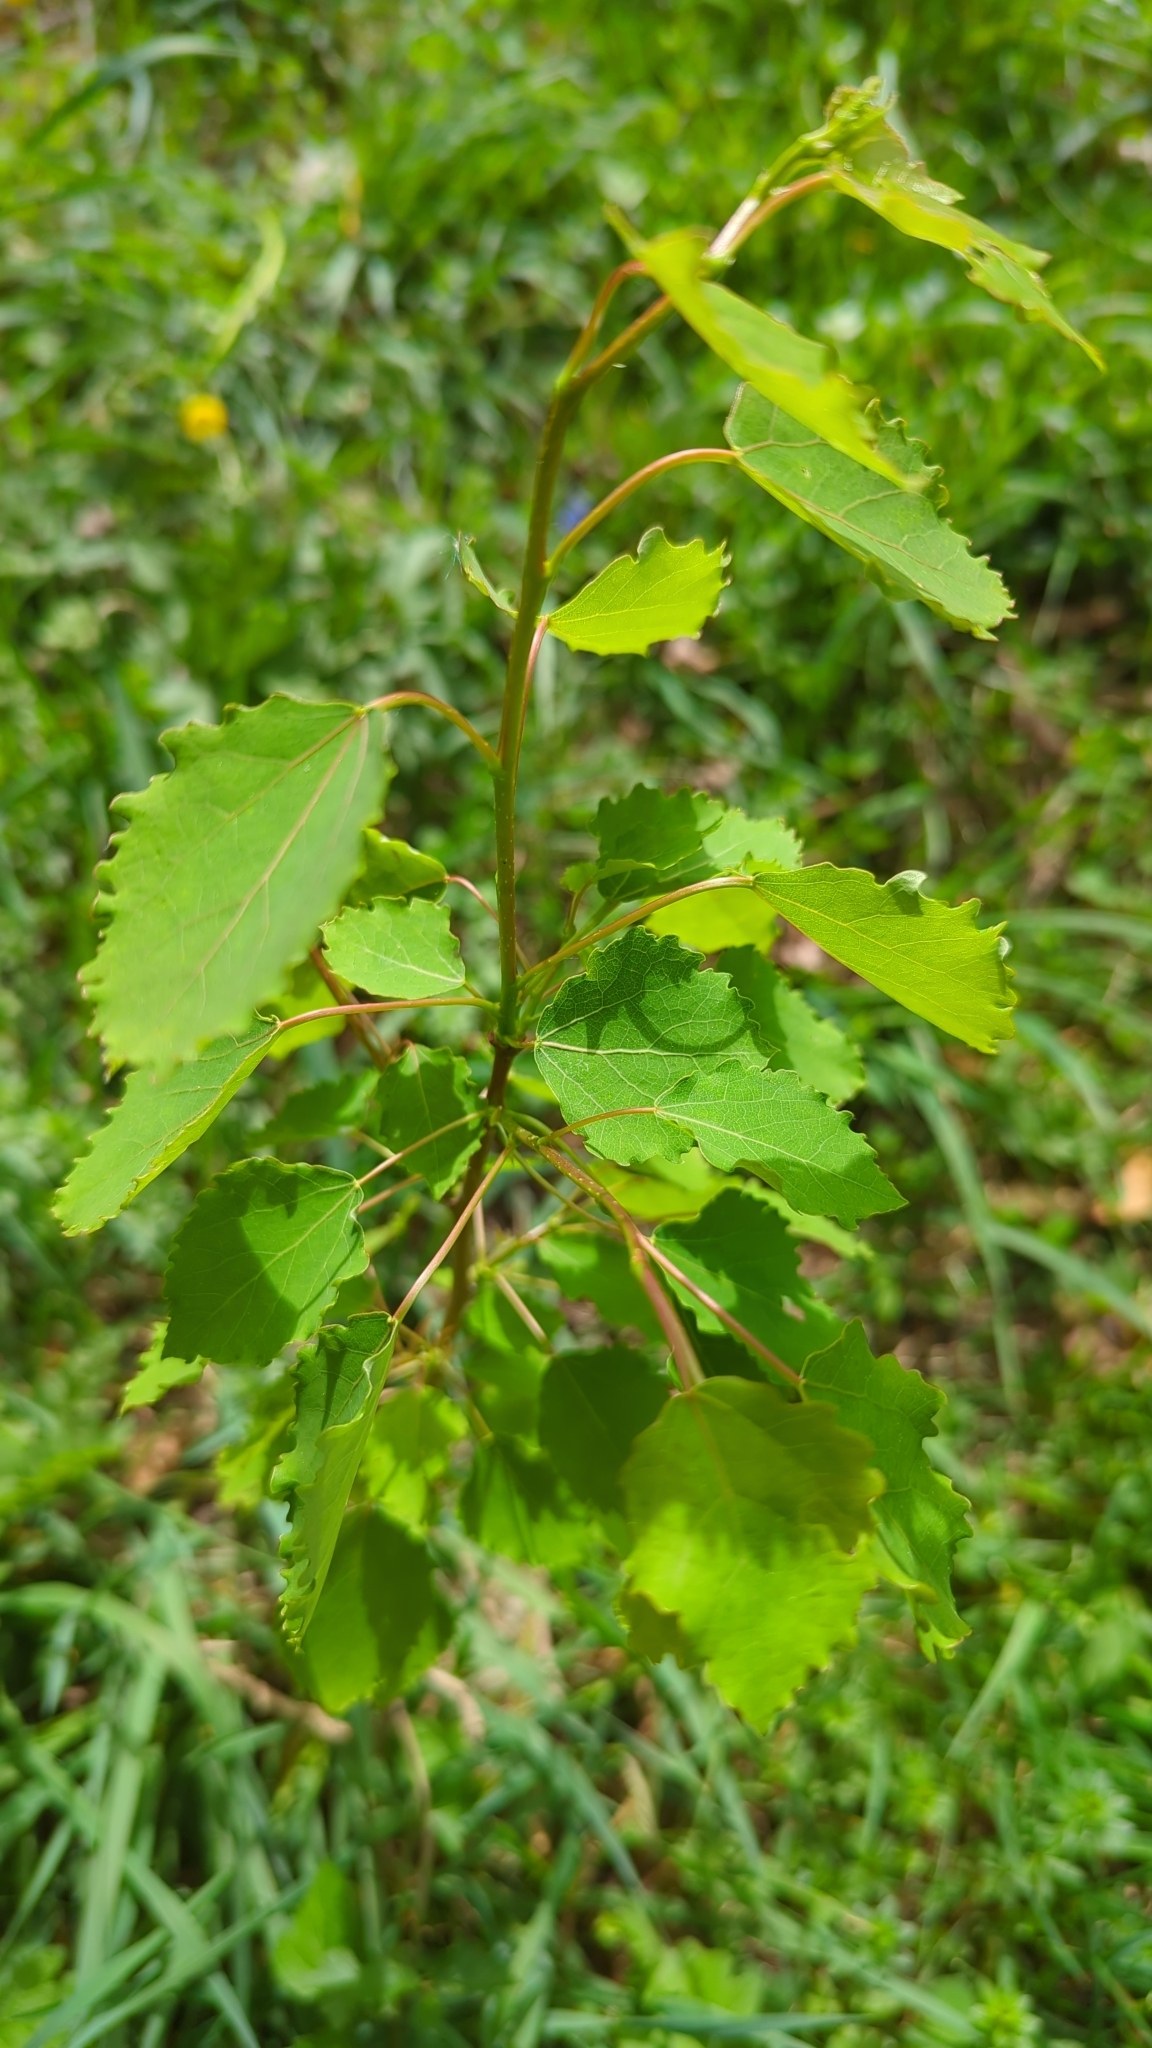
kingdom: Plantae
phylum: Tracheophyta
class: Magnoliopsida
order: Malpighiales
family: Salicaceae
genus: Populus
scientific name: Populus tremula
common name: European aspen
